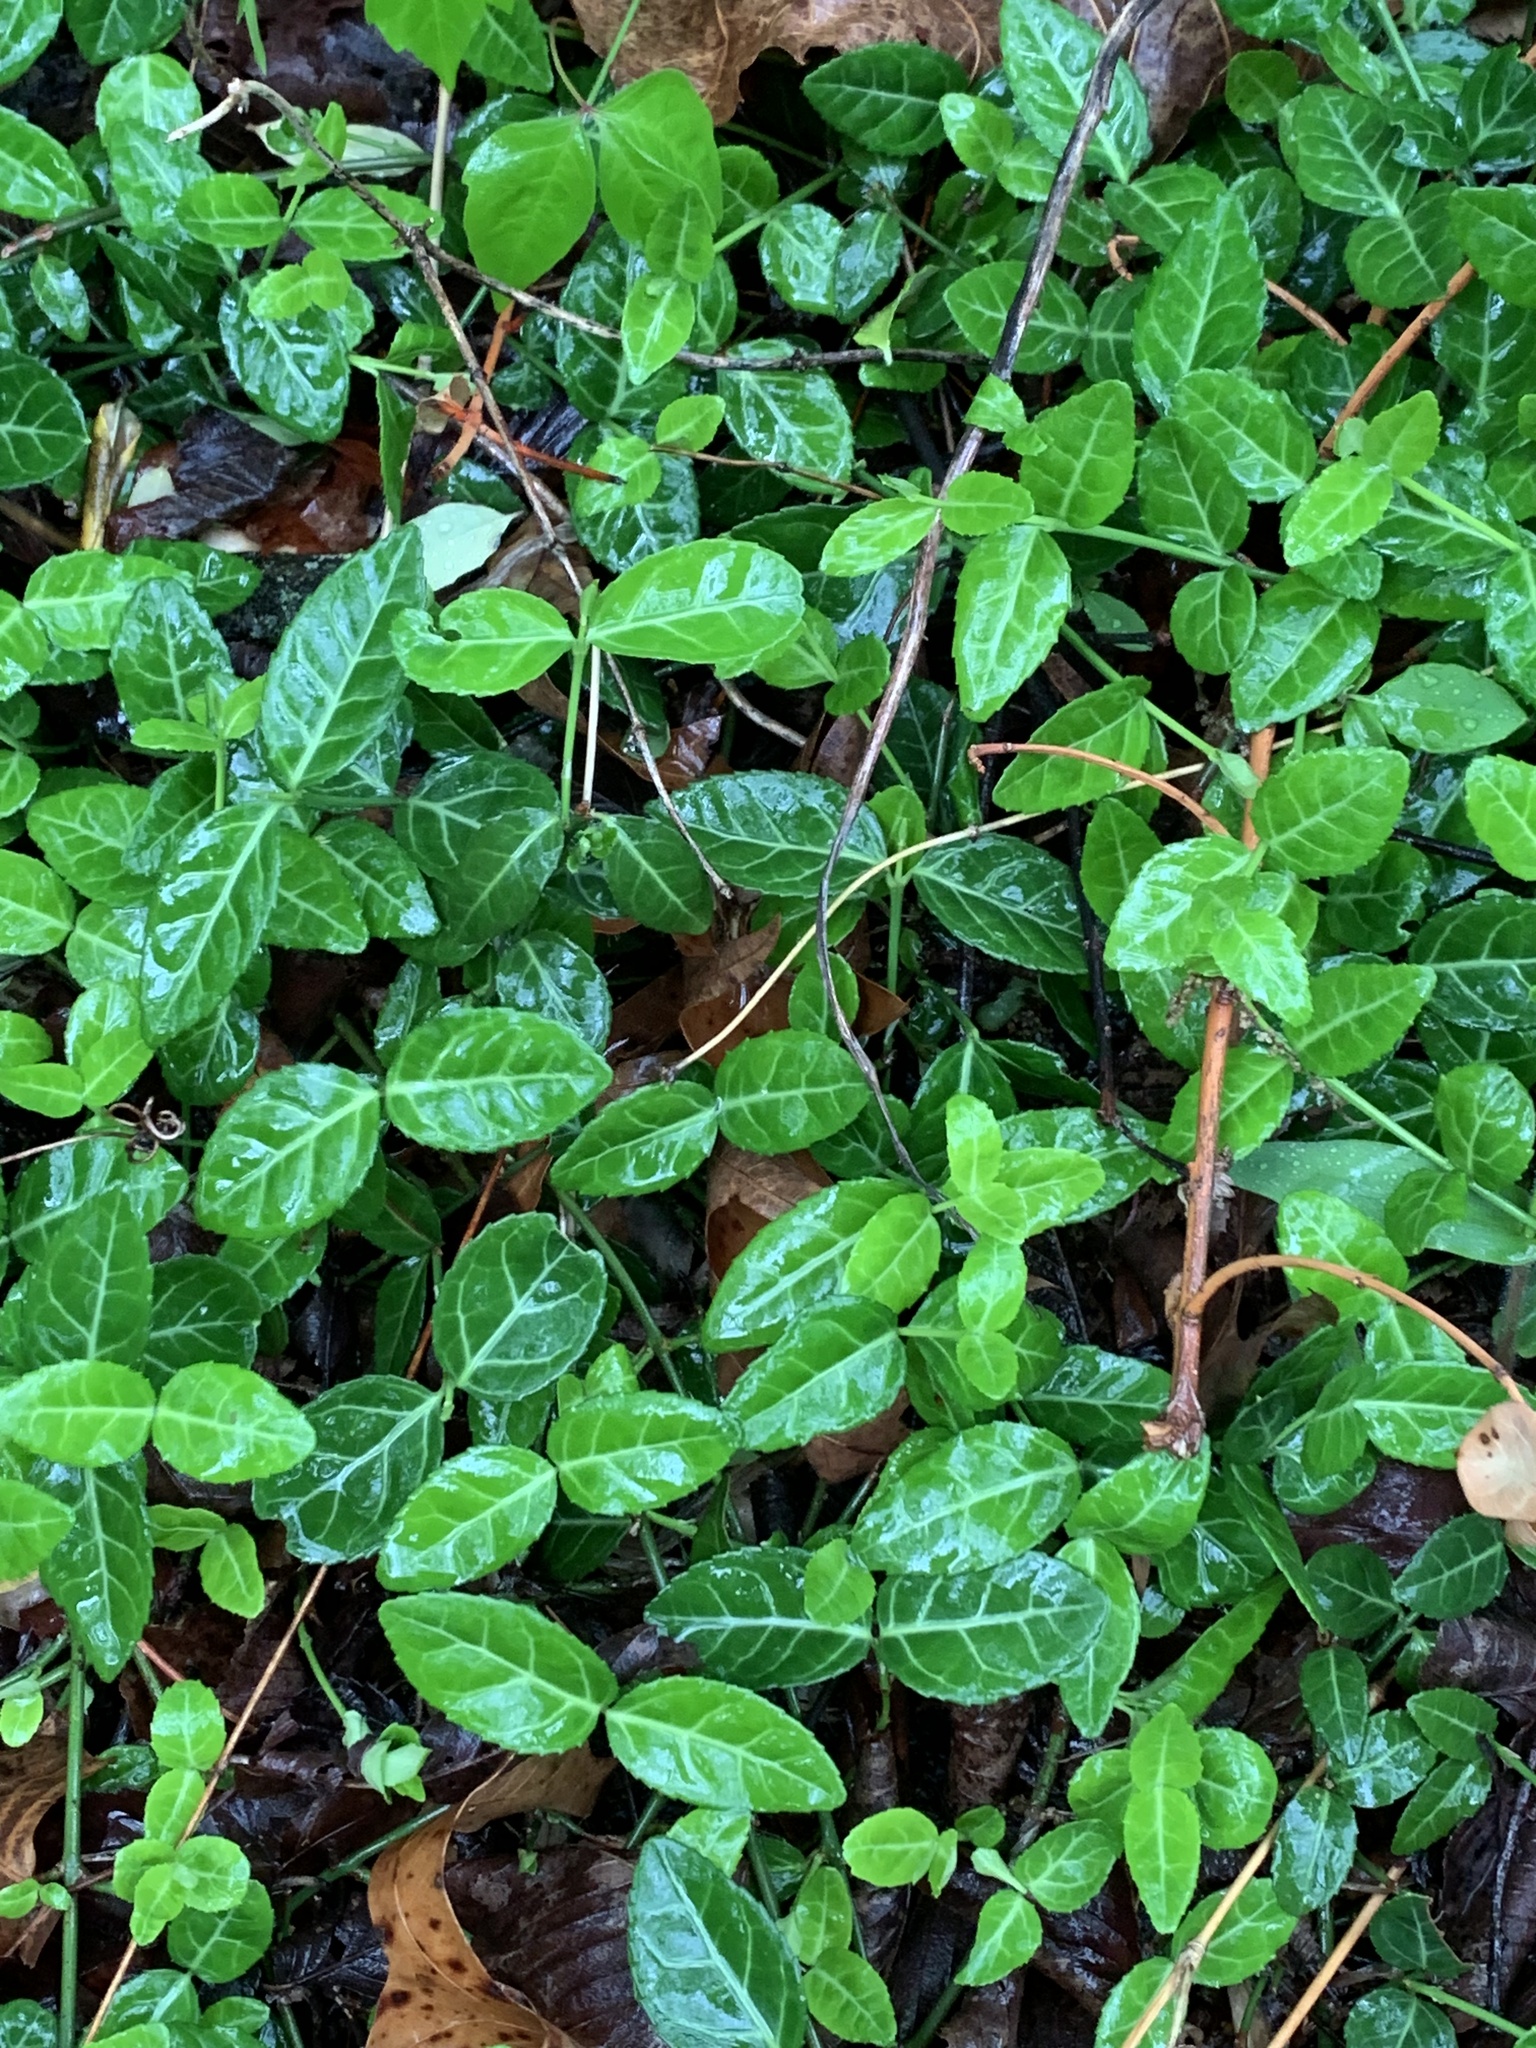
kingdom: Plantae
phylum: Tracheophyta
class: Magnoliopsida
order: Celastrales
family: Celastraceae
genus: Euonymus
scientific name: Euonymus fortunei
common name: Climbing euonymus
